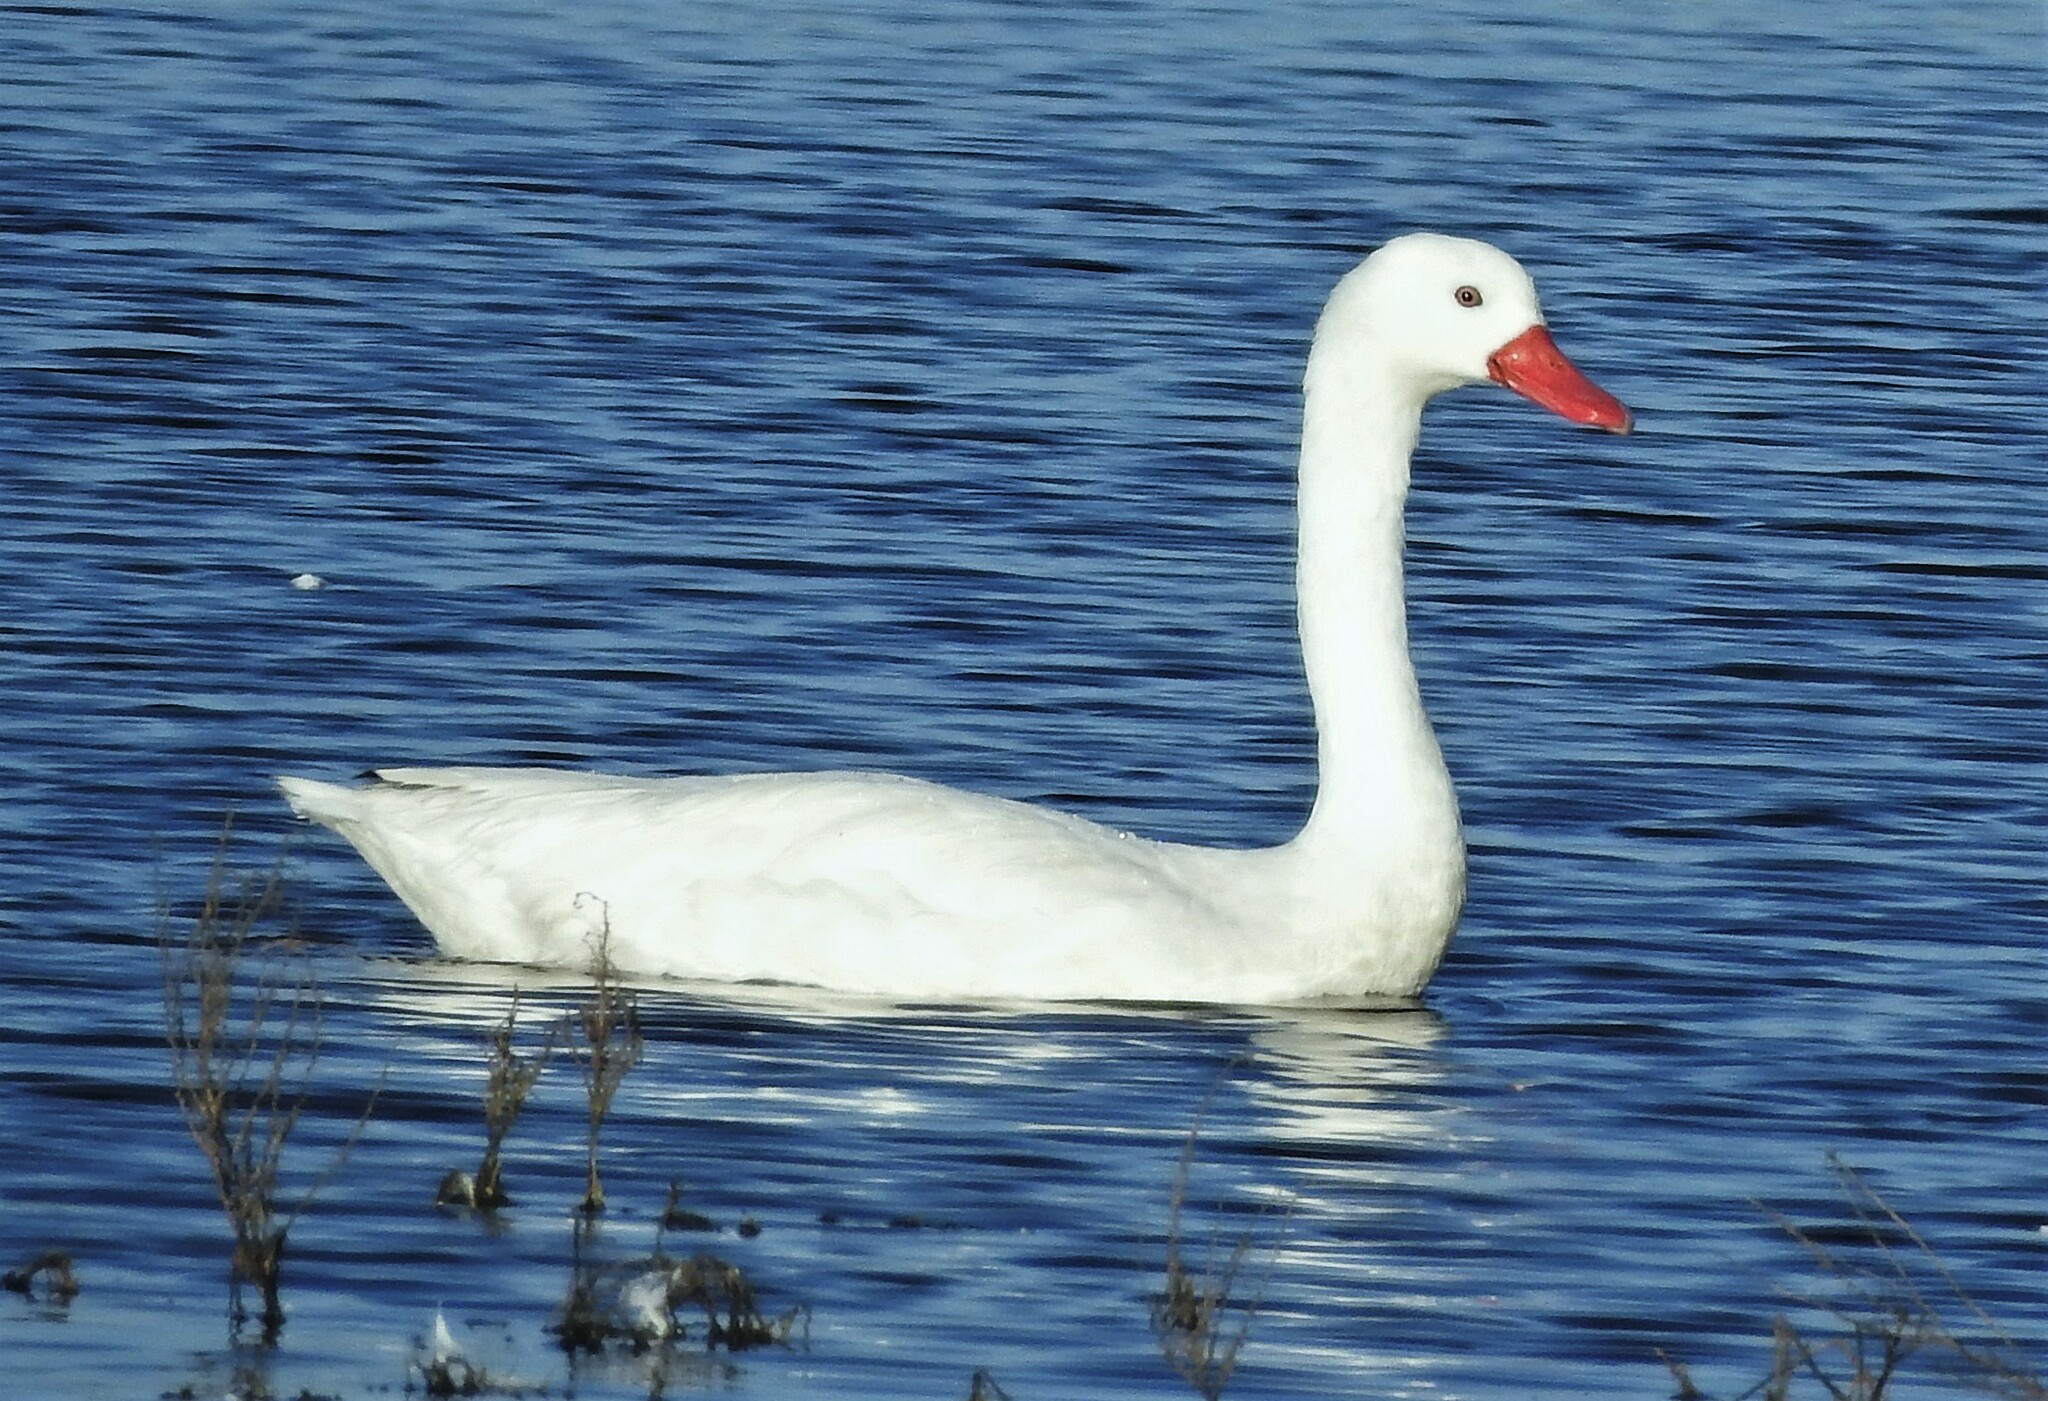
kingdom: Animalia
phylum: Chordata
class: Aves
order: Anseriformes
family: Anatidae
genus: Coscoroba
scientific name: Coscoroba coscoroba
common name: Coscoroba swan
